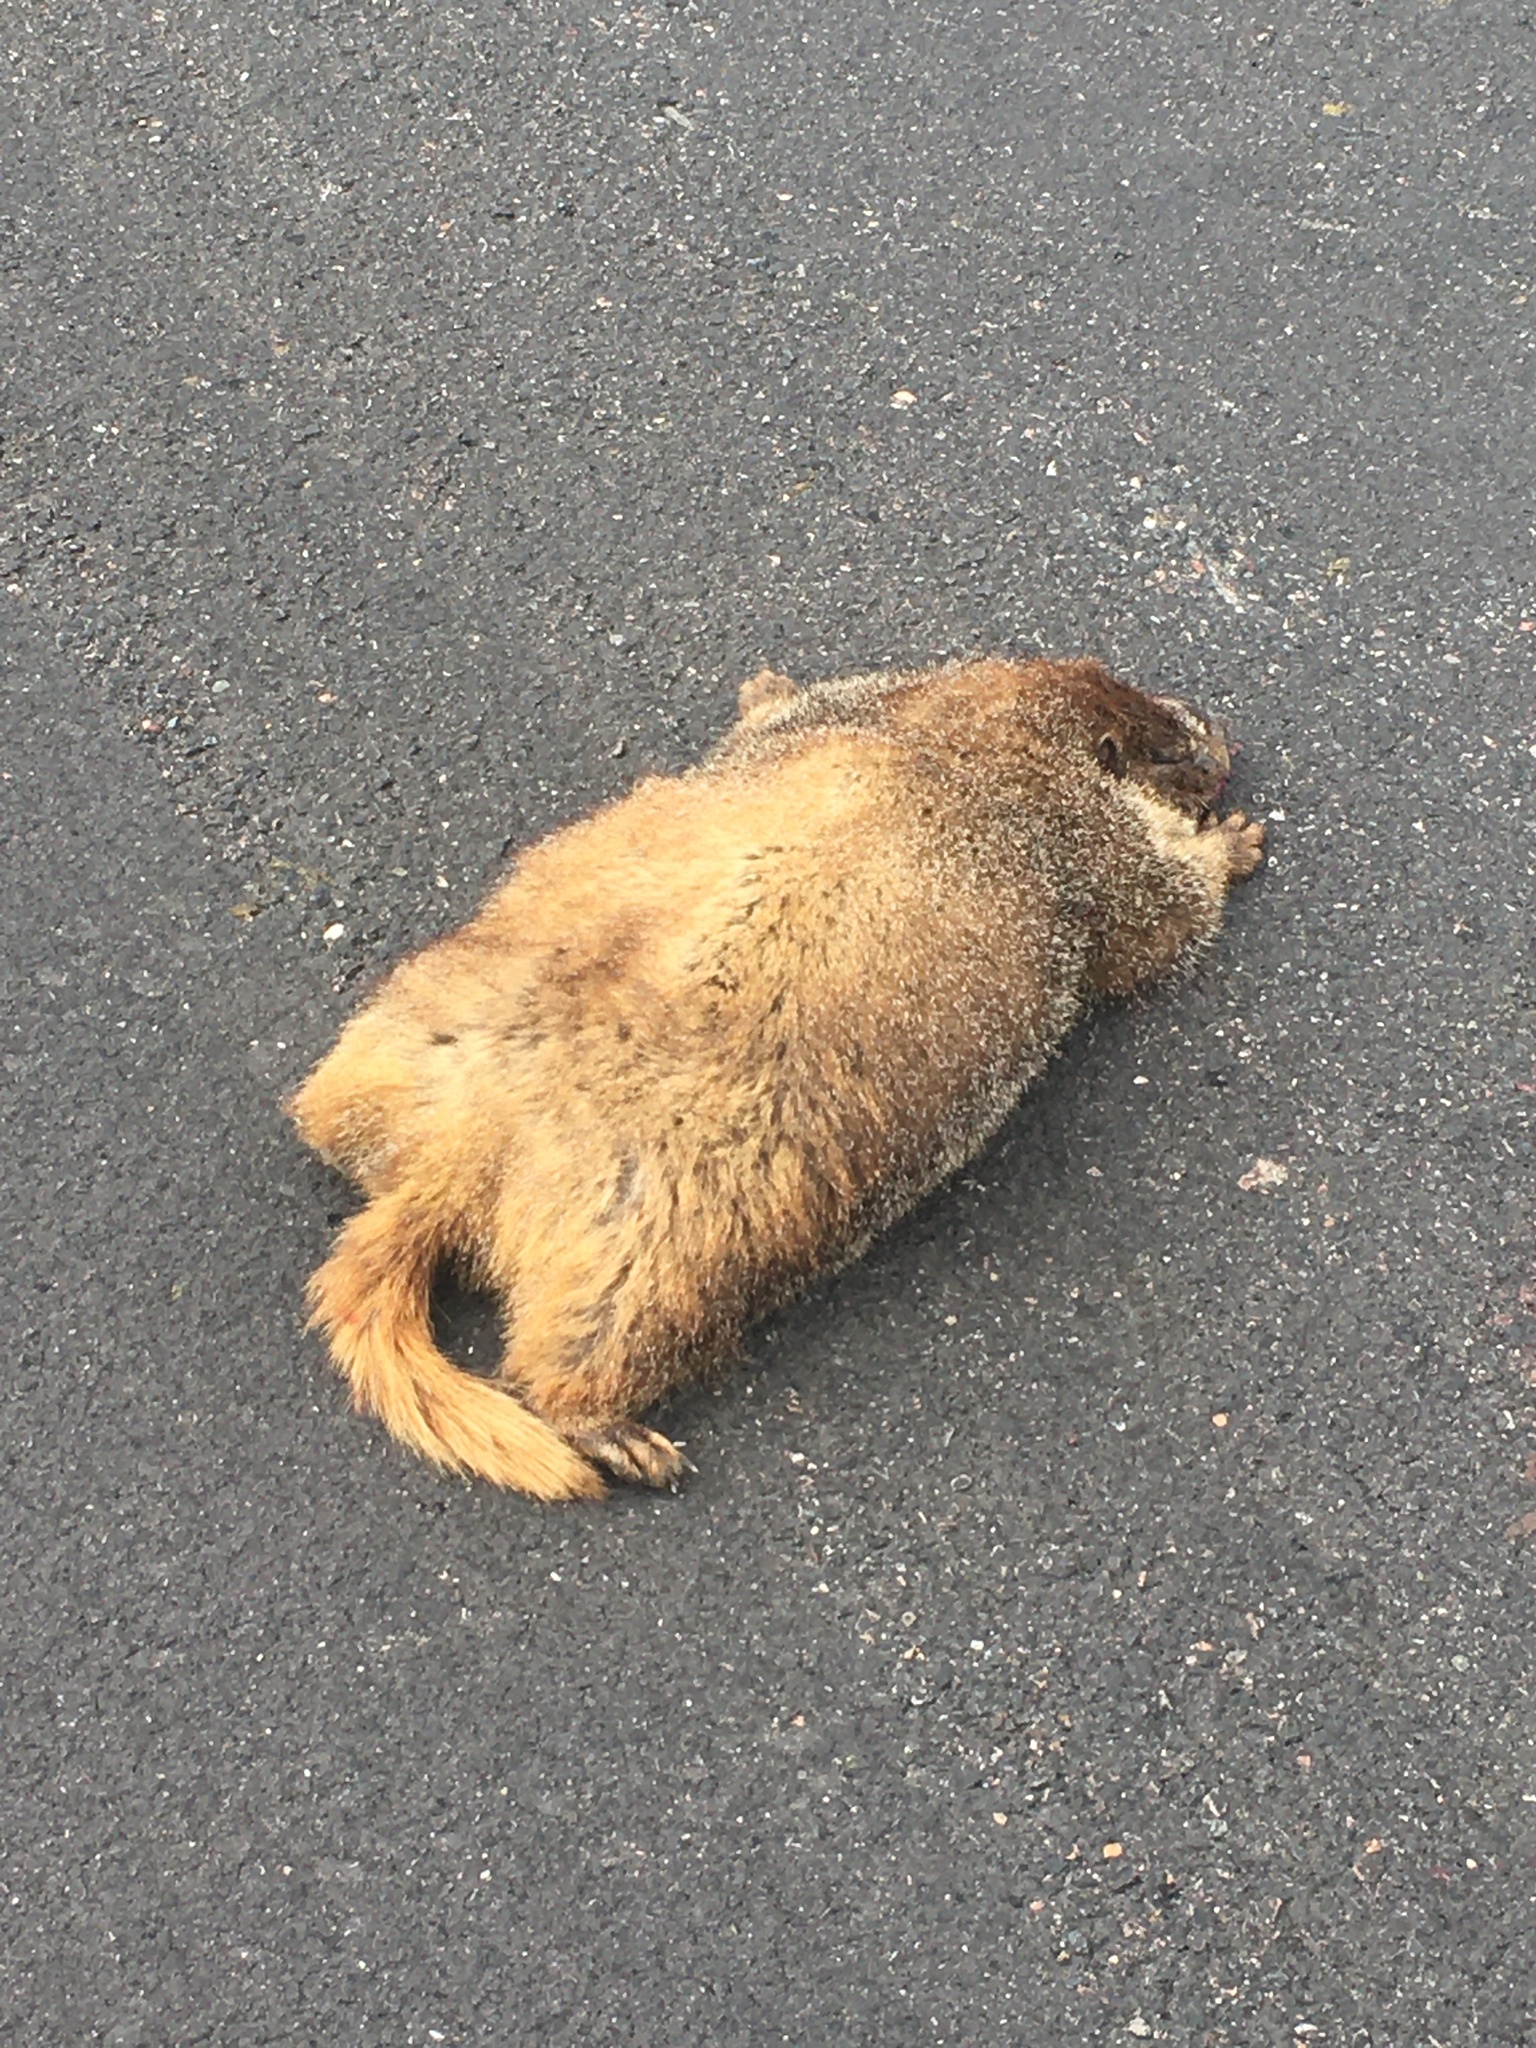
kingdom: Animalia
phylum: Chordata
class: Mammalia
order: Rodentia
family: Sciuridae
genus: Marmota
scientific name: Marmota flaviventris
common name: Yellow-bellied marmot
